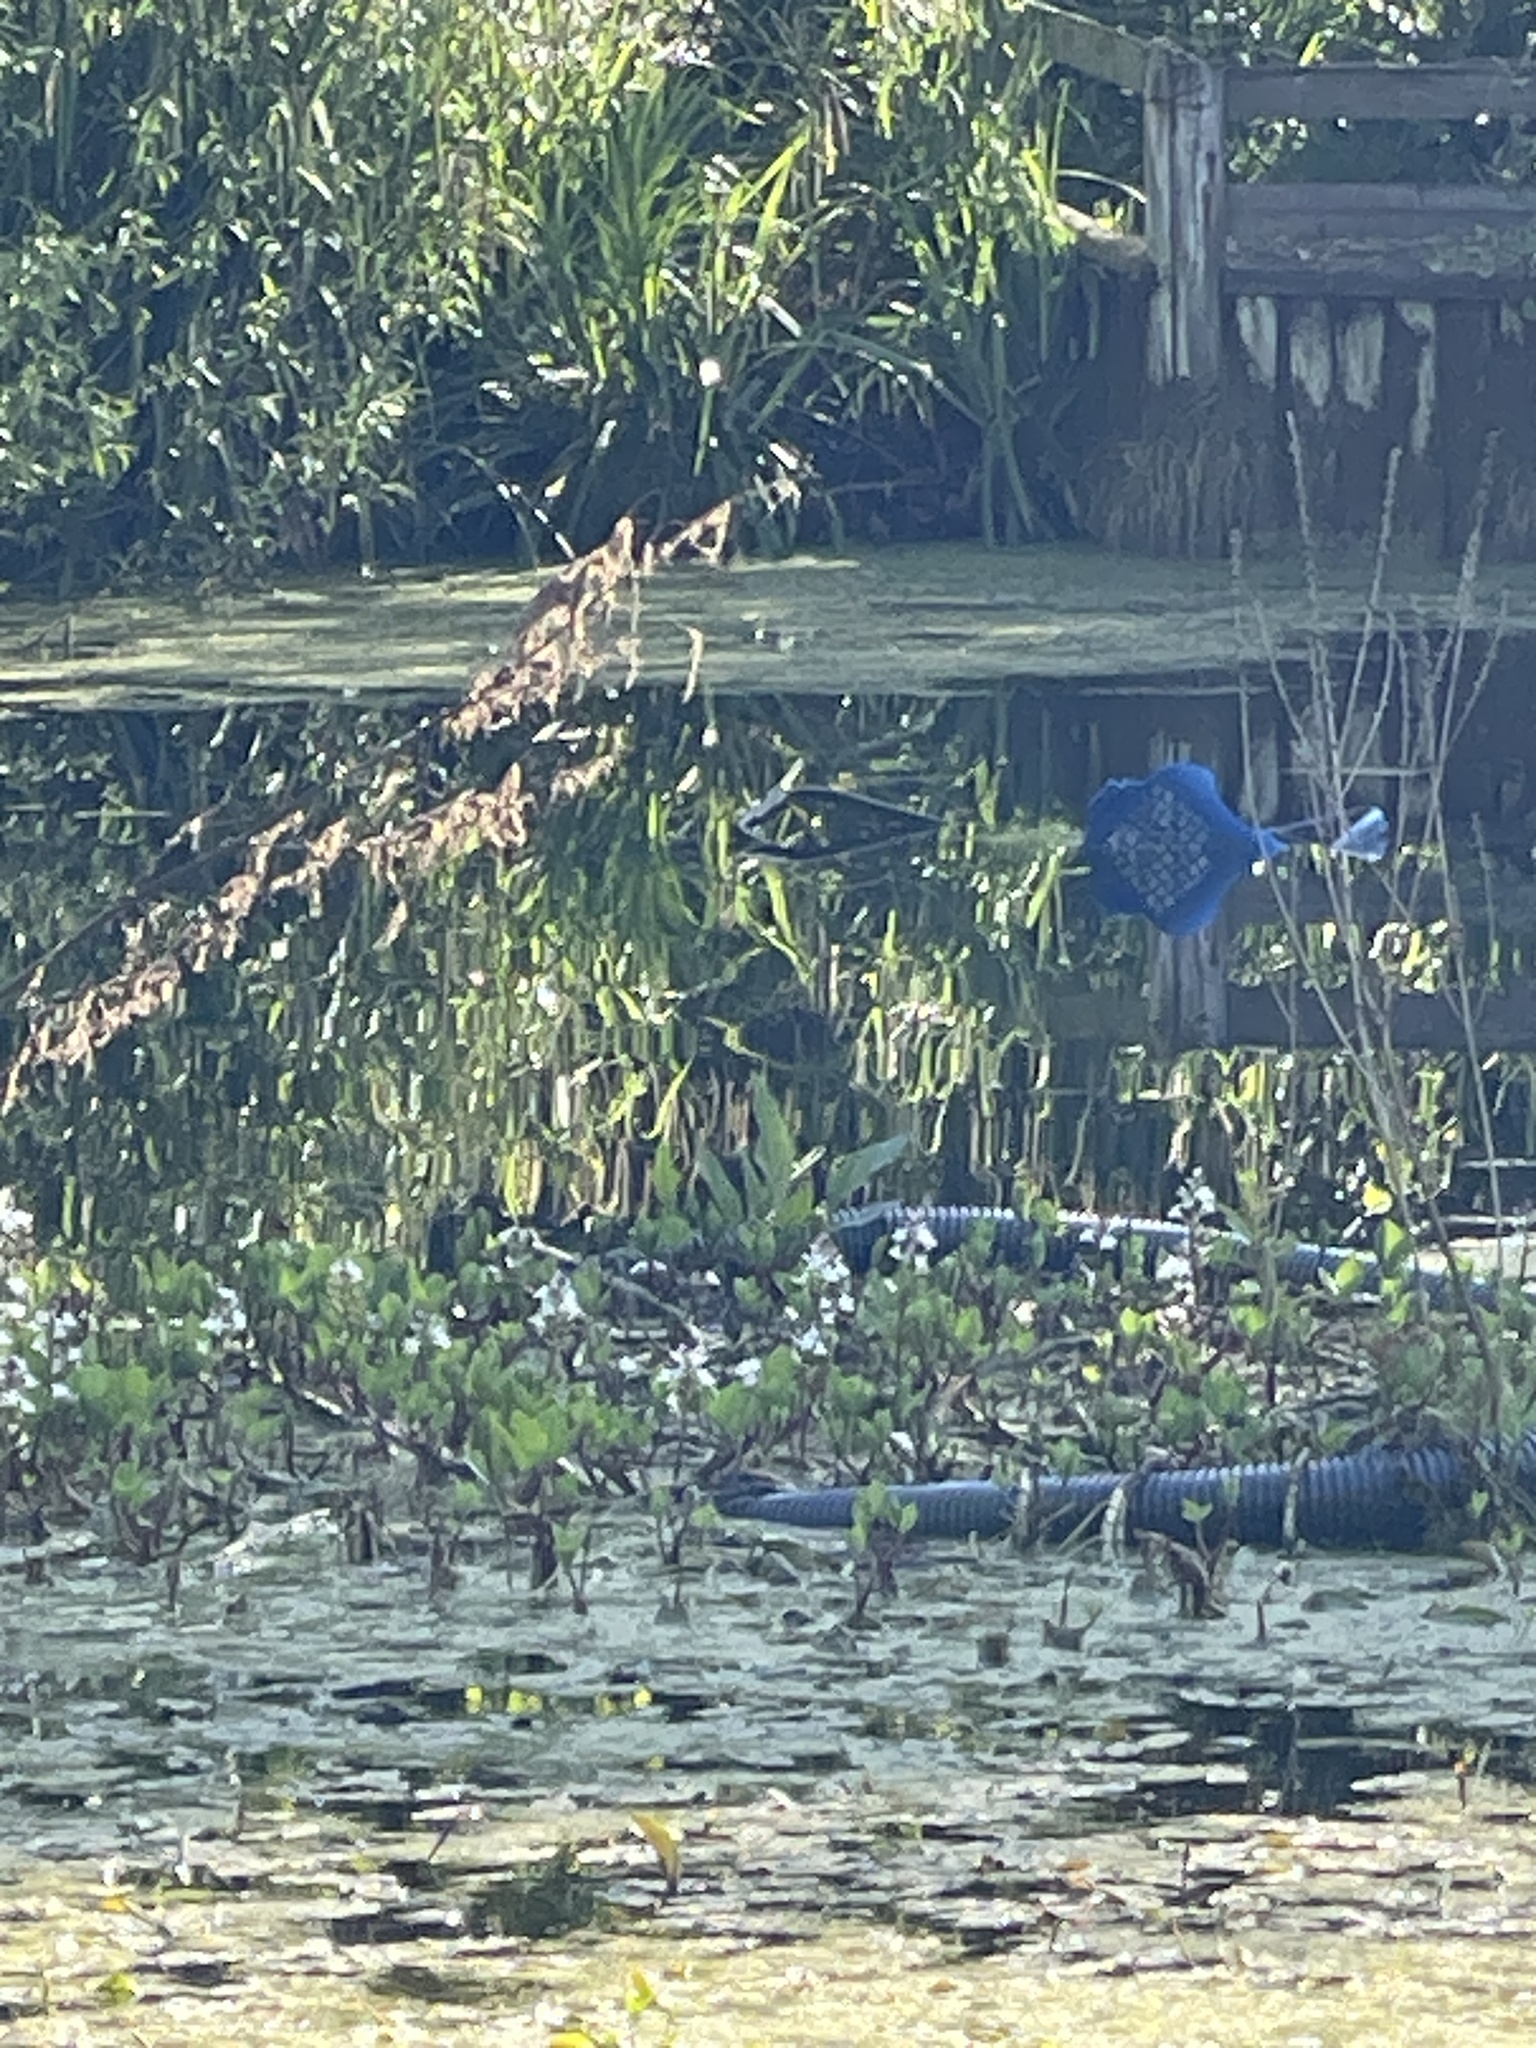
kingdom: Plantae
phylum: Tracheophyta
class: Magnoliopsida
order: Asterales
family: Menyanthaceae
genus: Menyanthes
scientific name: Menyanthes trifoliata
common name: Bogbean
